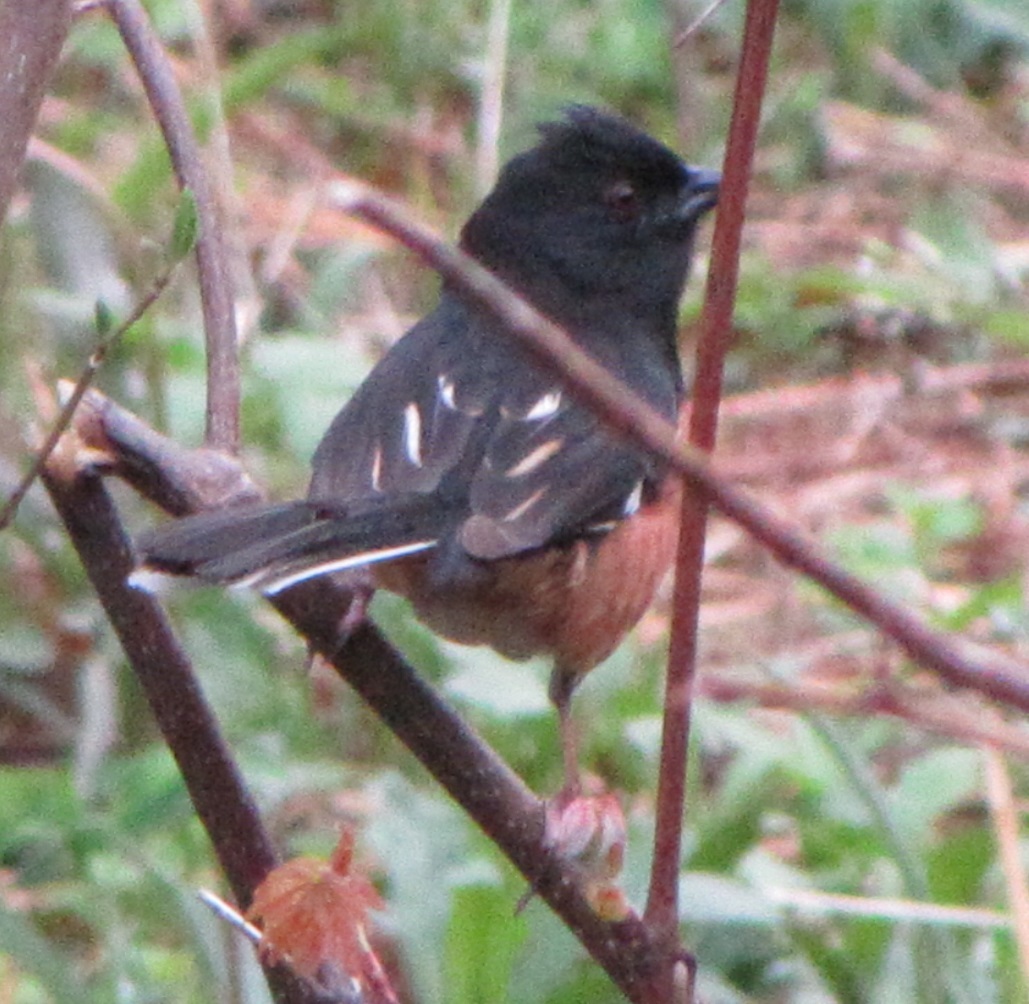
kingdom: Animalia
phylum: Chordata
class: Aves
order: Passeriformes
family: Passerellidae
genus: Pipilo
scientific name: Pipilo erythrophthalmus
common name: Eastern towhee
